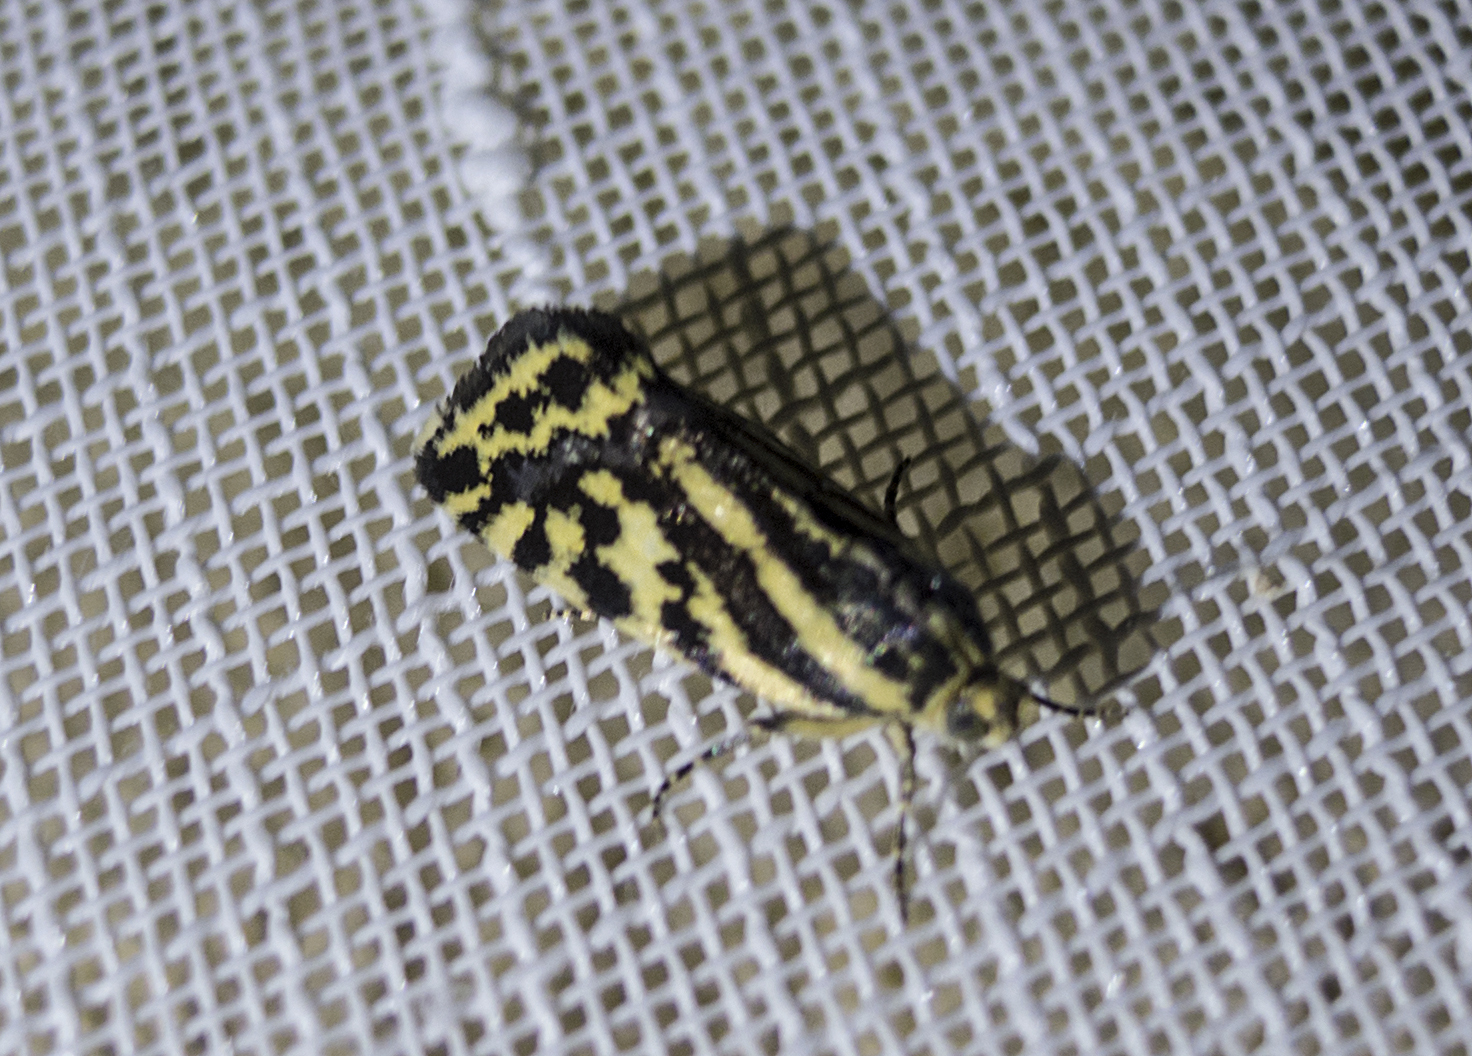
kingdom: Animalia
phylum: Arthropoda
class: Insecta
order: Lepidoptera
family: Noctuidae
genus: Acontia
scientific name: Acontia trabealis
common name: Spotted sulphur
